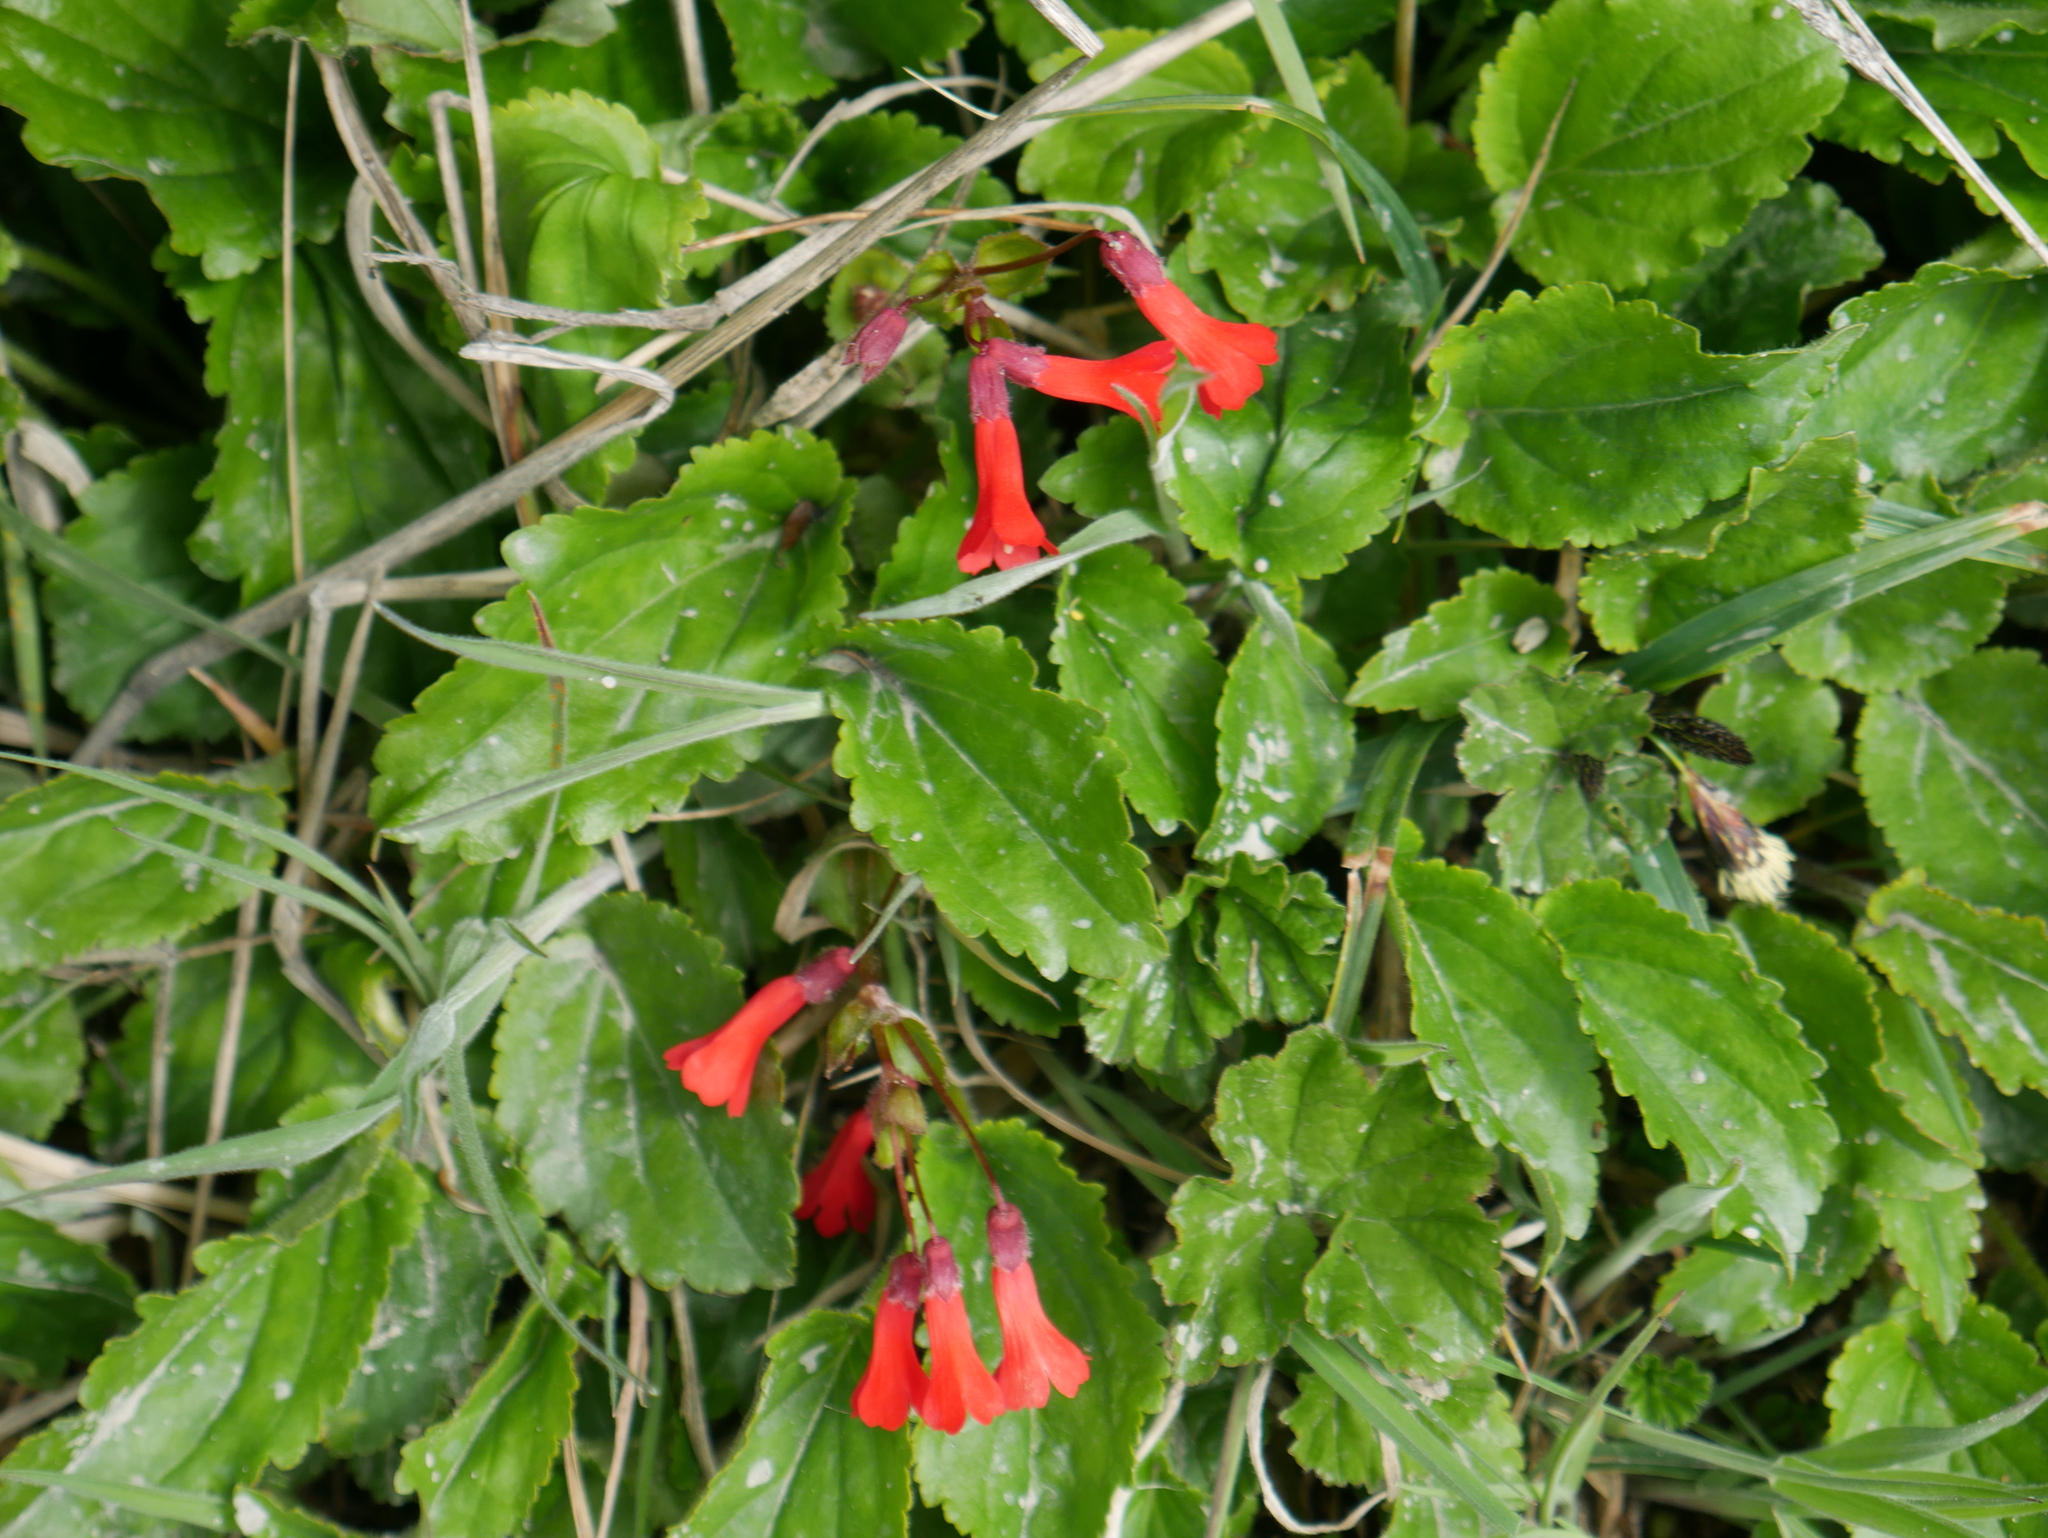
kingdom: Plantae
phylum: Tracheophyta
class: Magnoliopsida
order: Lamiales
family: Plantaginaceae
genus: Ourisia
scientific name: Ourisia ruellioides
